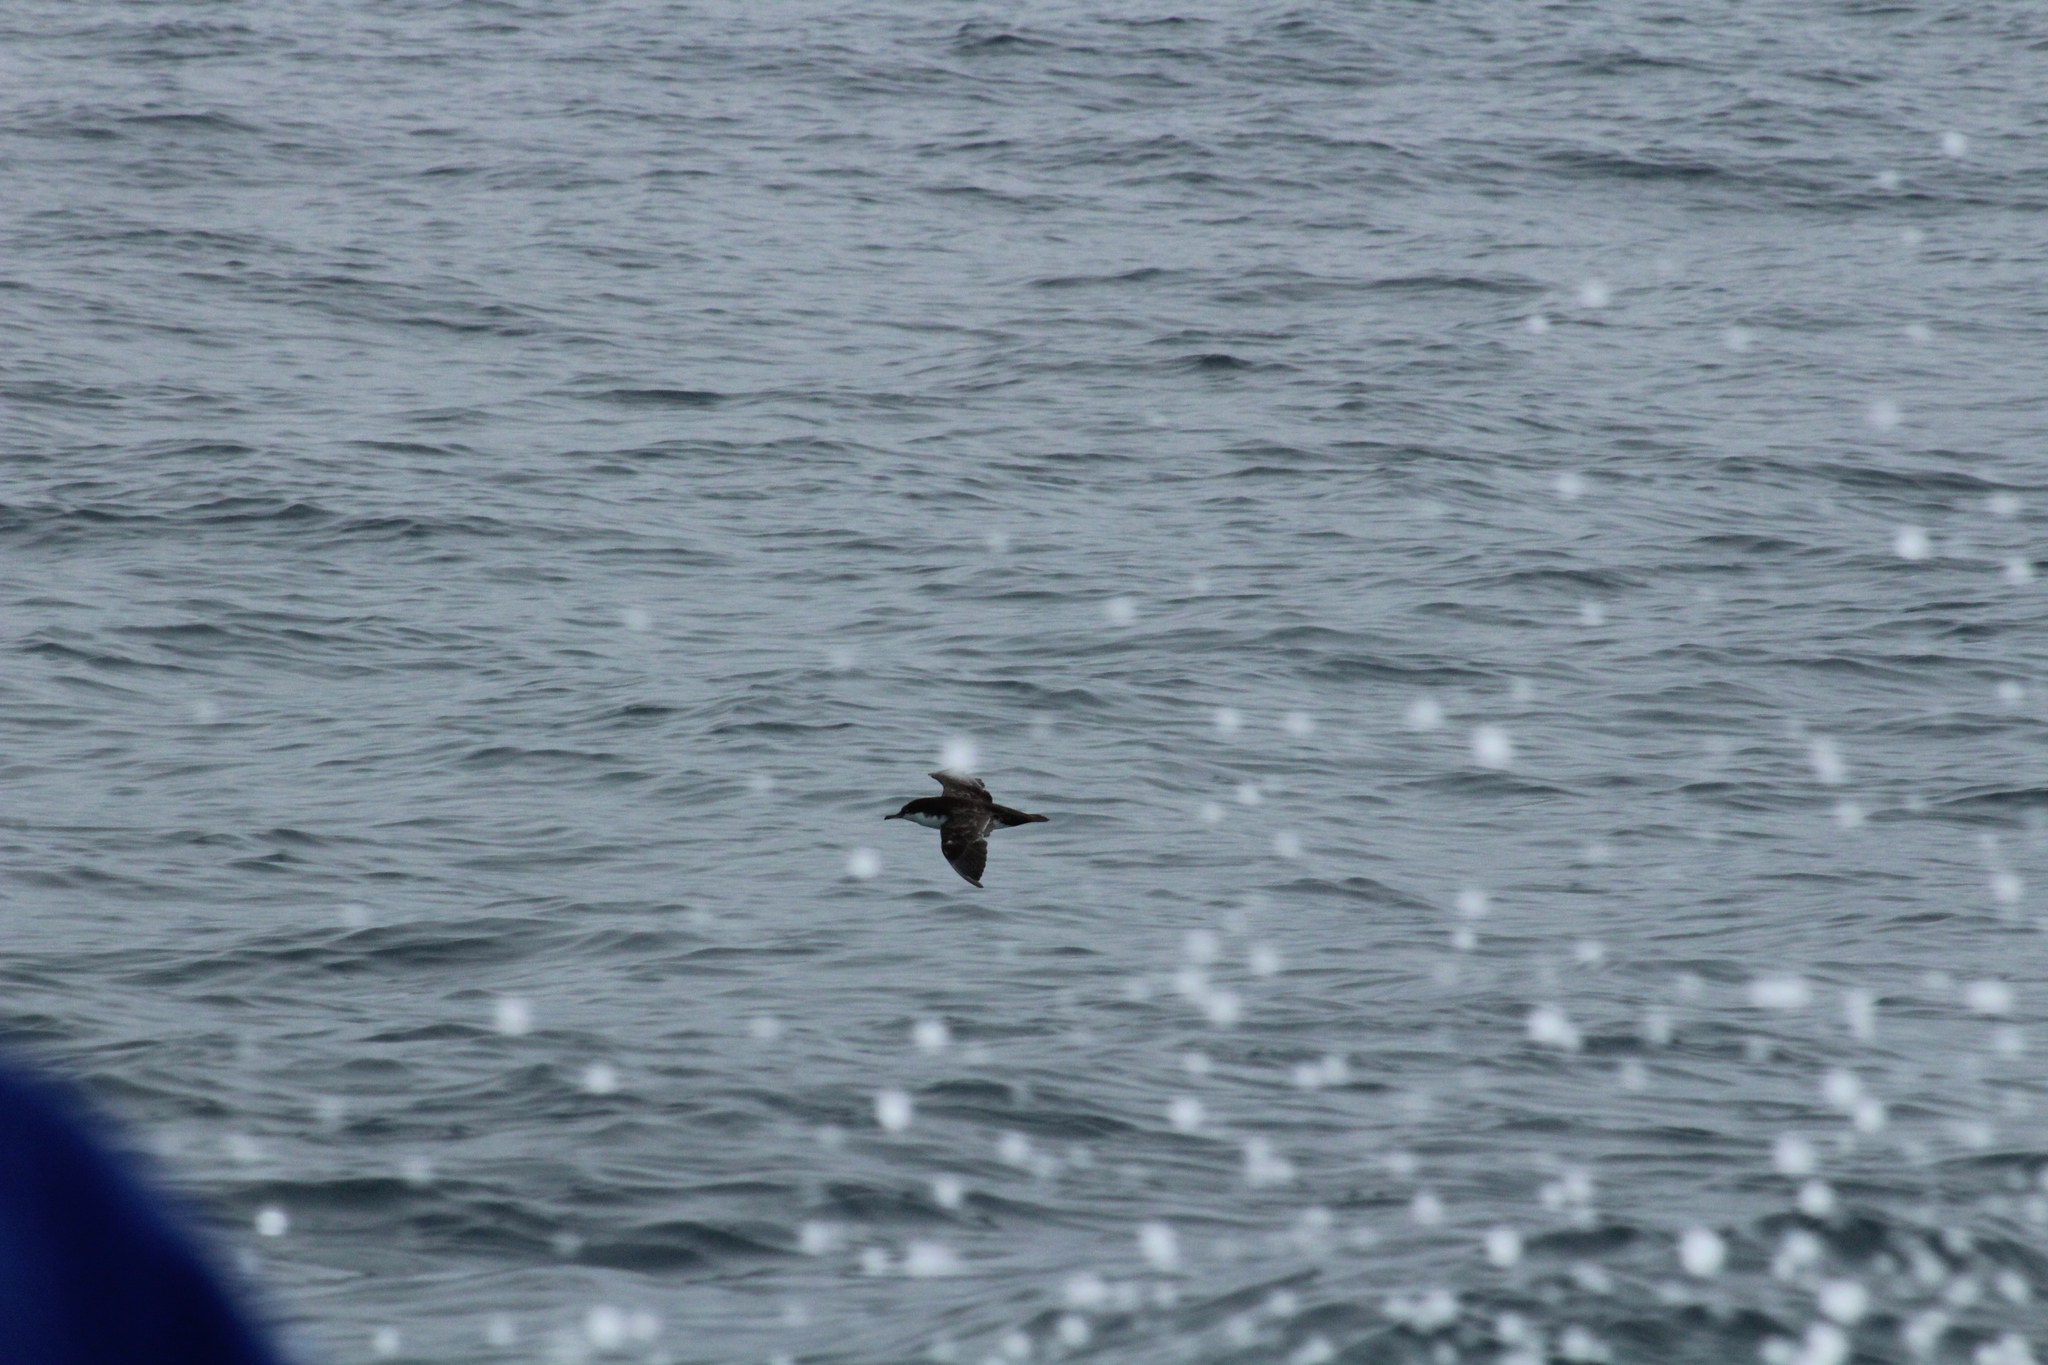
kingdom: Animalia
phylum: Chordata
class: Aves
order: Procellariiformes
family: Procellariidae
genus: Puffinus
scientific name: Puffinus subalaris
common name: Galapagos shearwater
